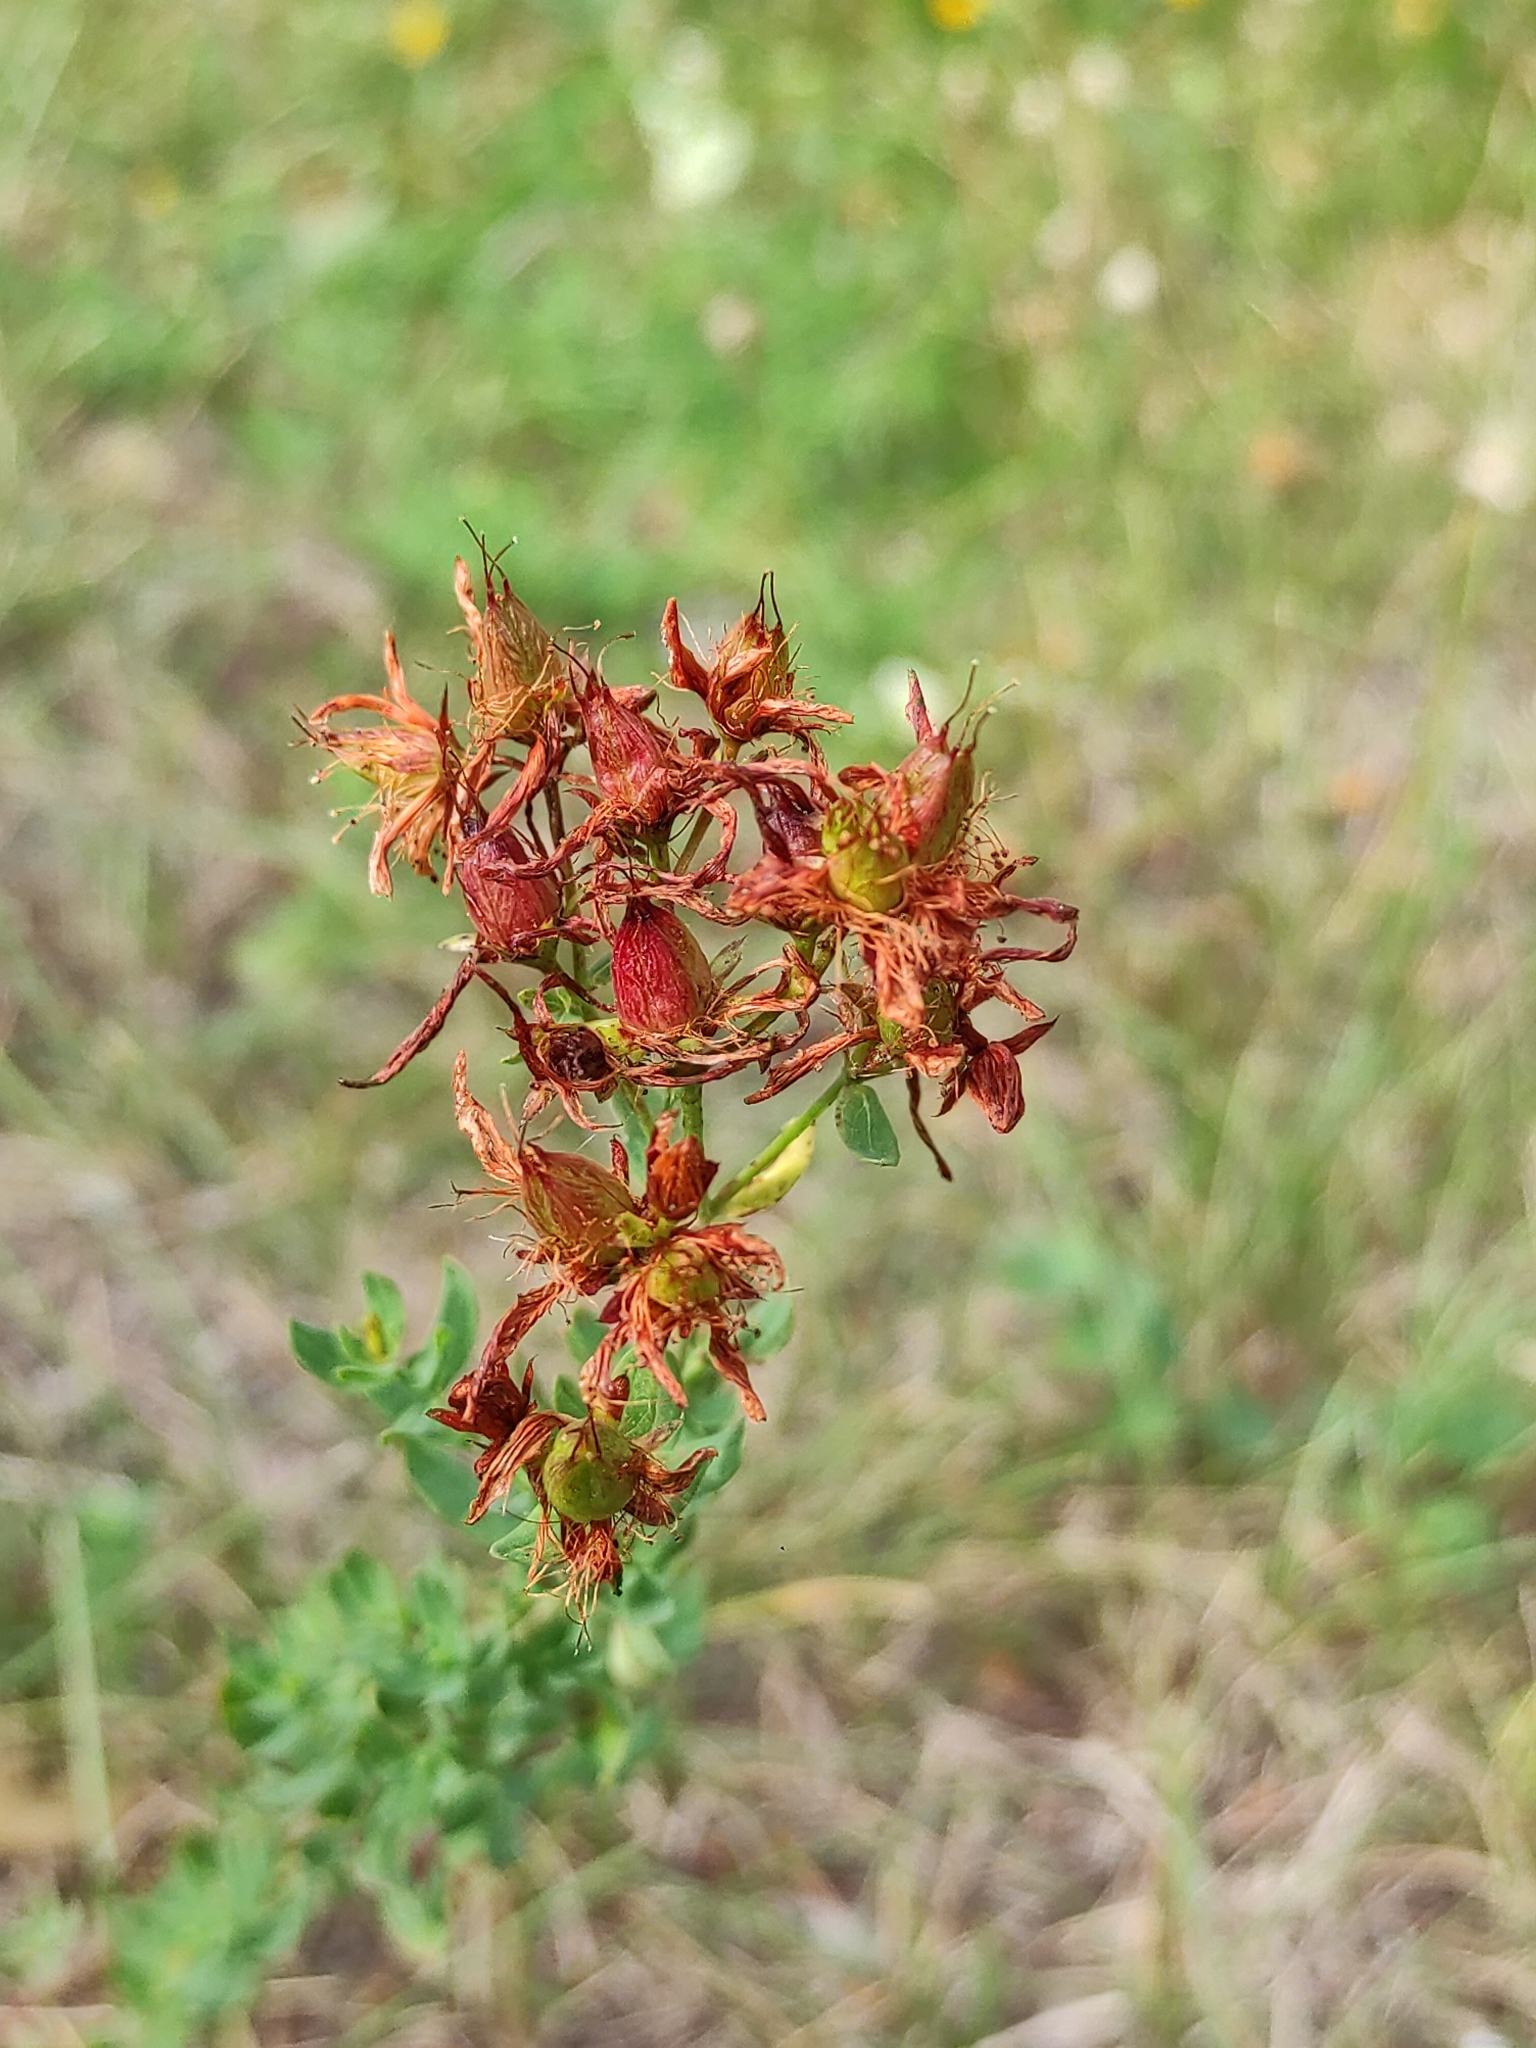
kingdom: Plantae
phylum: Tracheophyta
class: Magnoliopsida
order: Malpighiales
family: Hypericaceae
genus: Hypericum
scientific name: Hypericum perforatum
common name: Common st. johnswort
